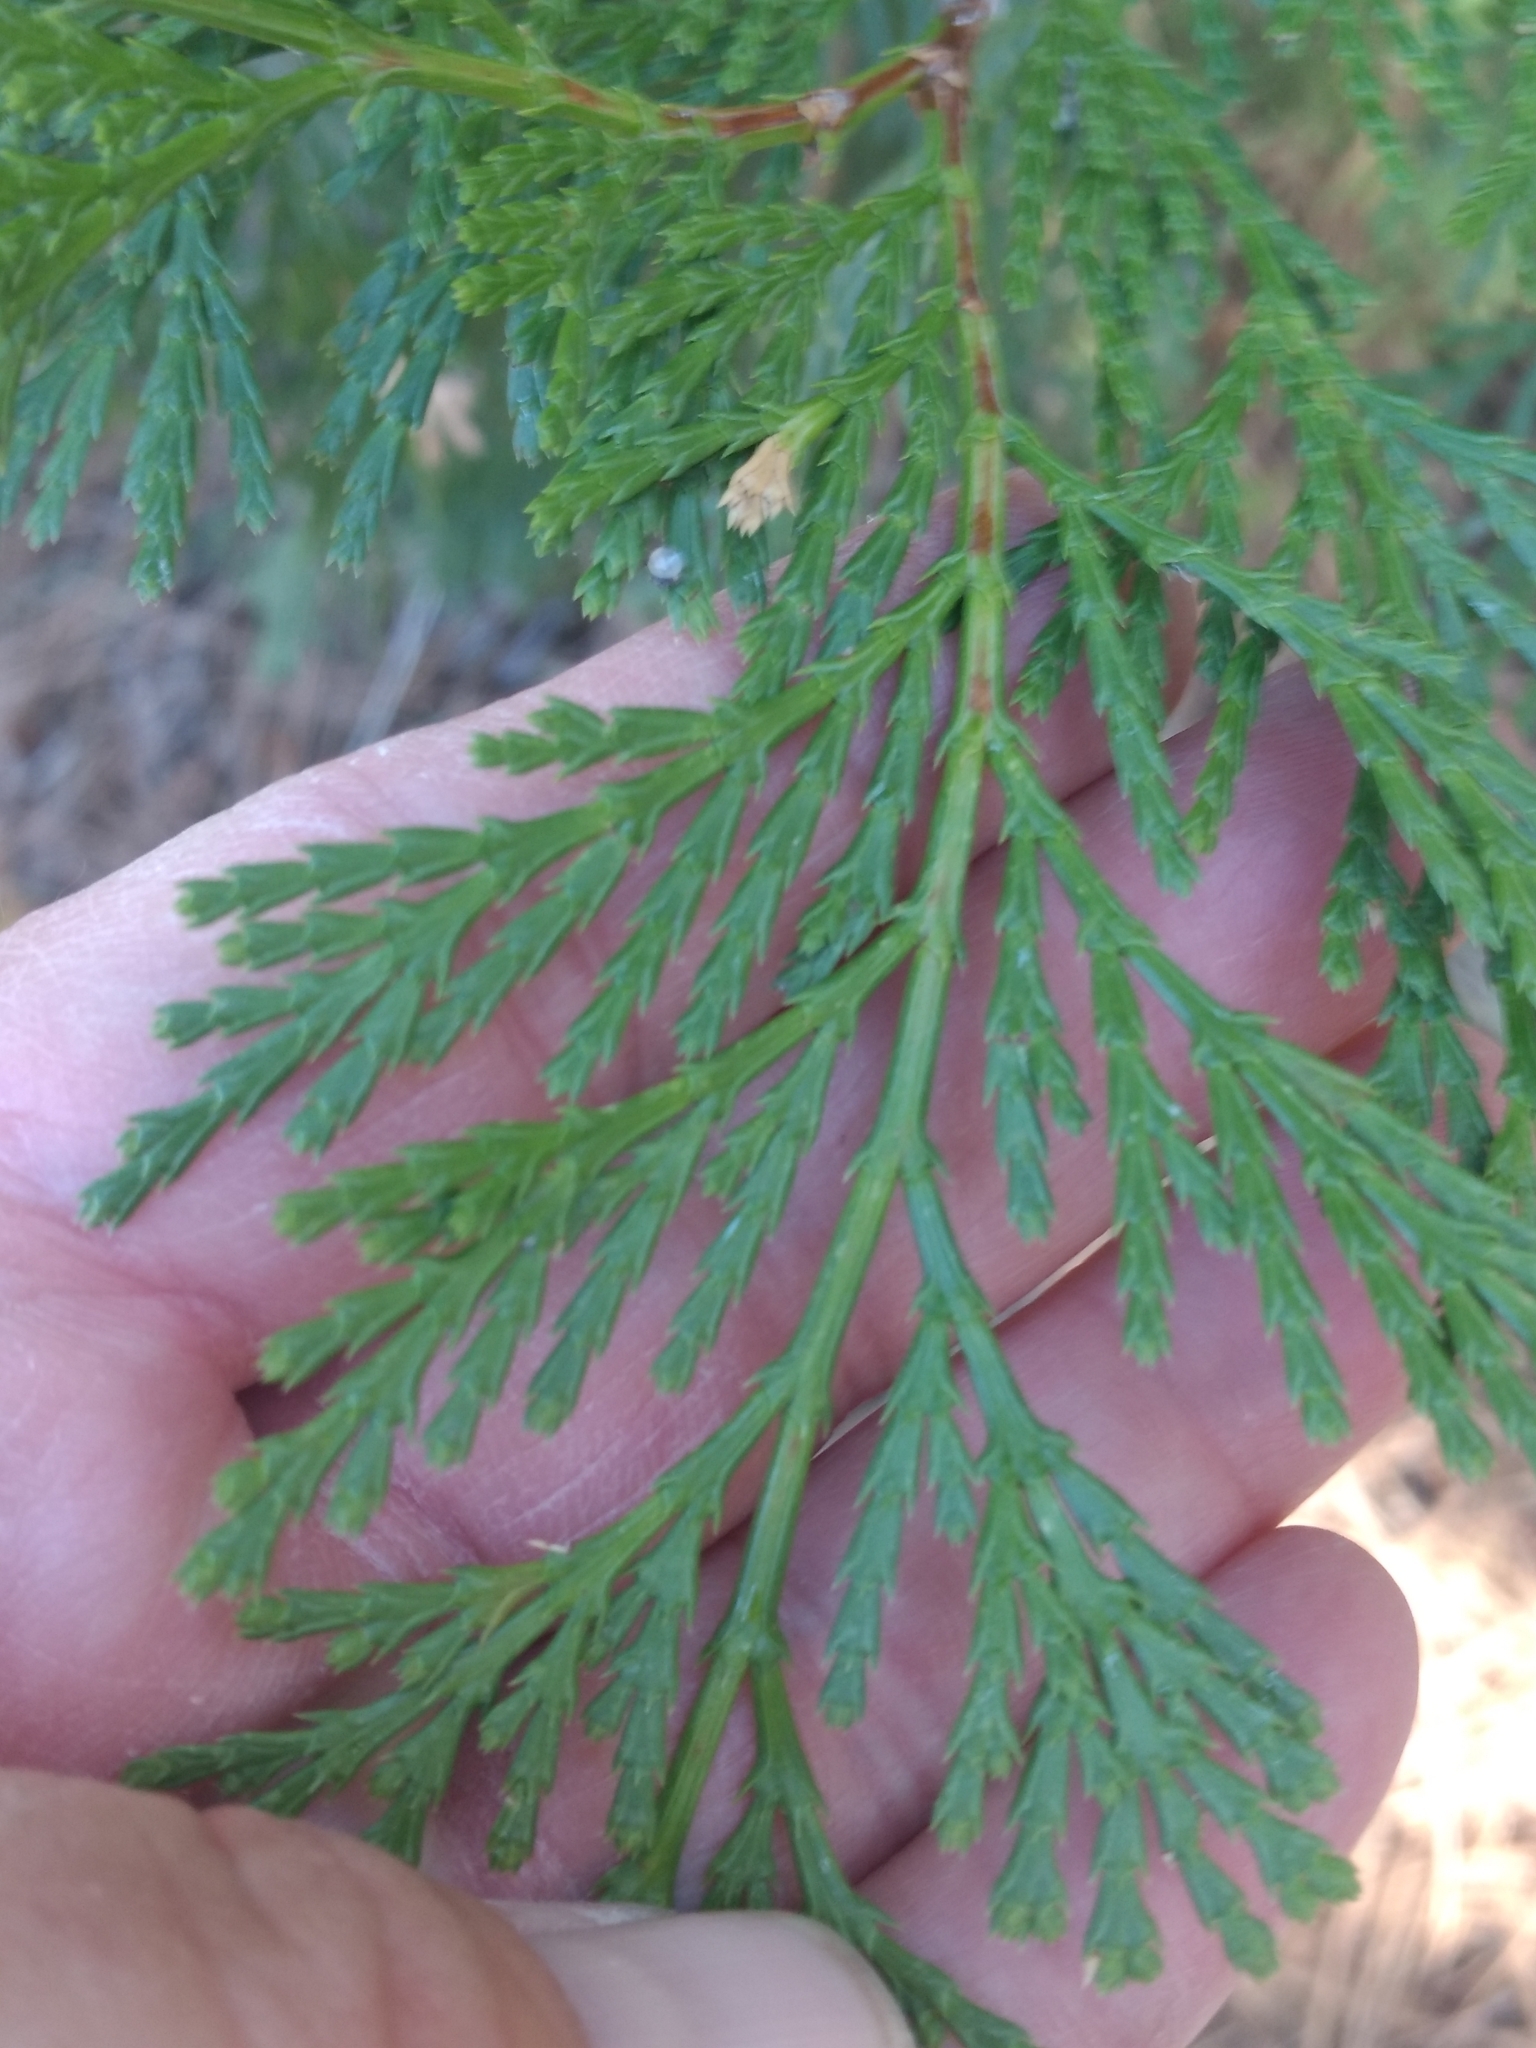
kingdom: Plantae
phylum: Tracheophyta
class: Pinopsida
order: Pinales
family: Cupressaceae
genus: Calocedrus
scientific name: Calocedrus decurrens
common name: Californian incense-cedar
